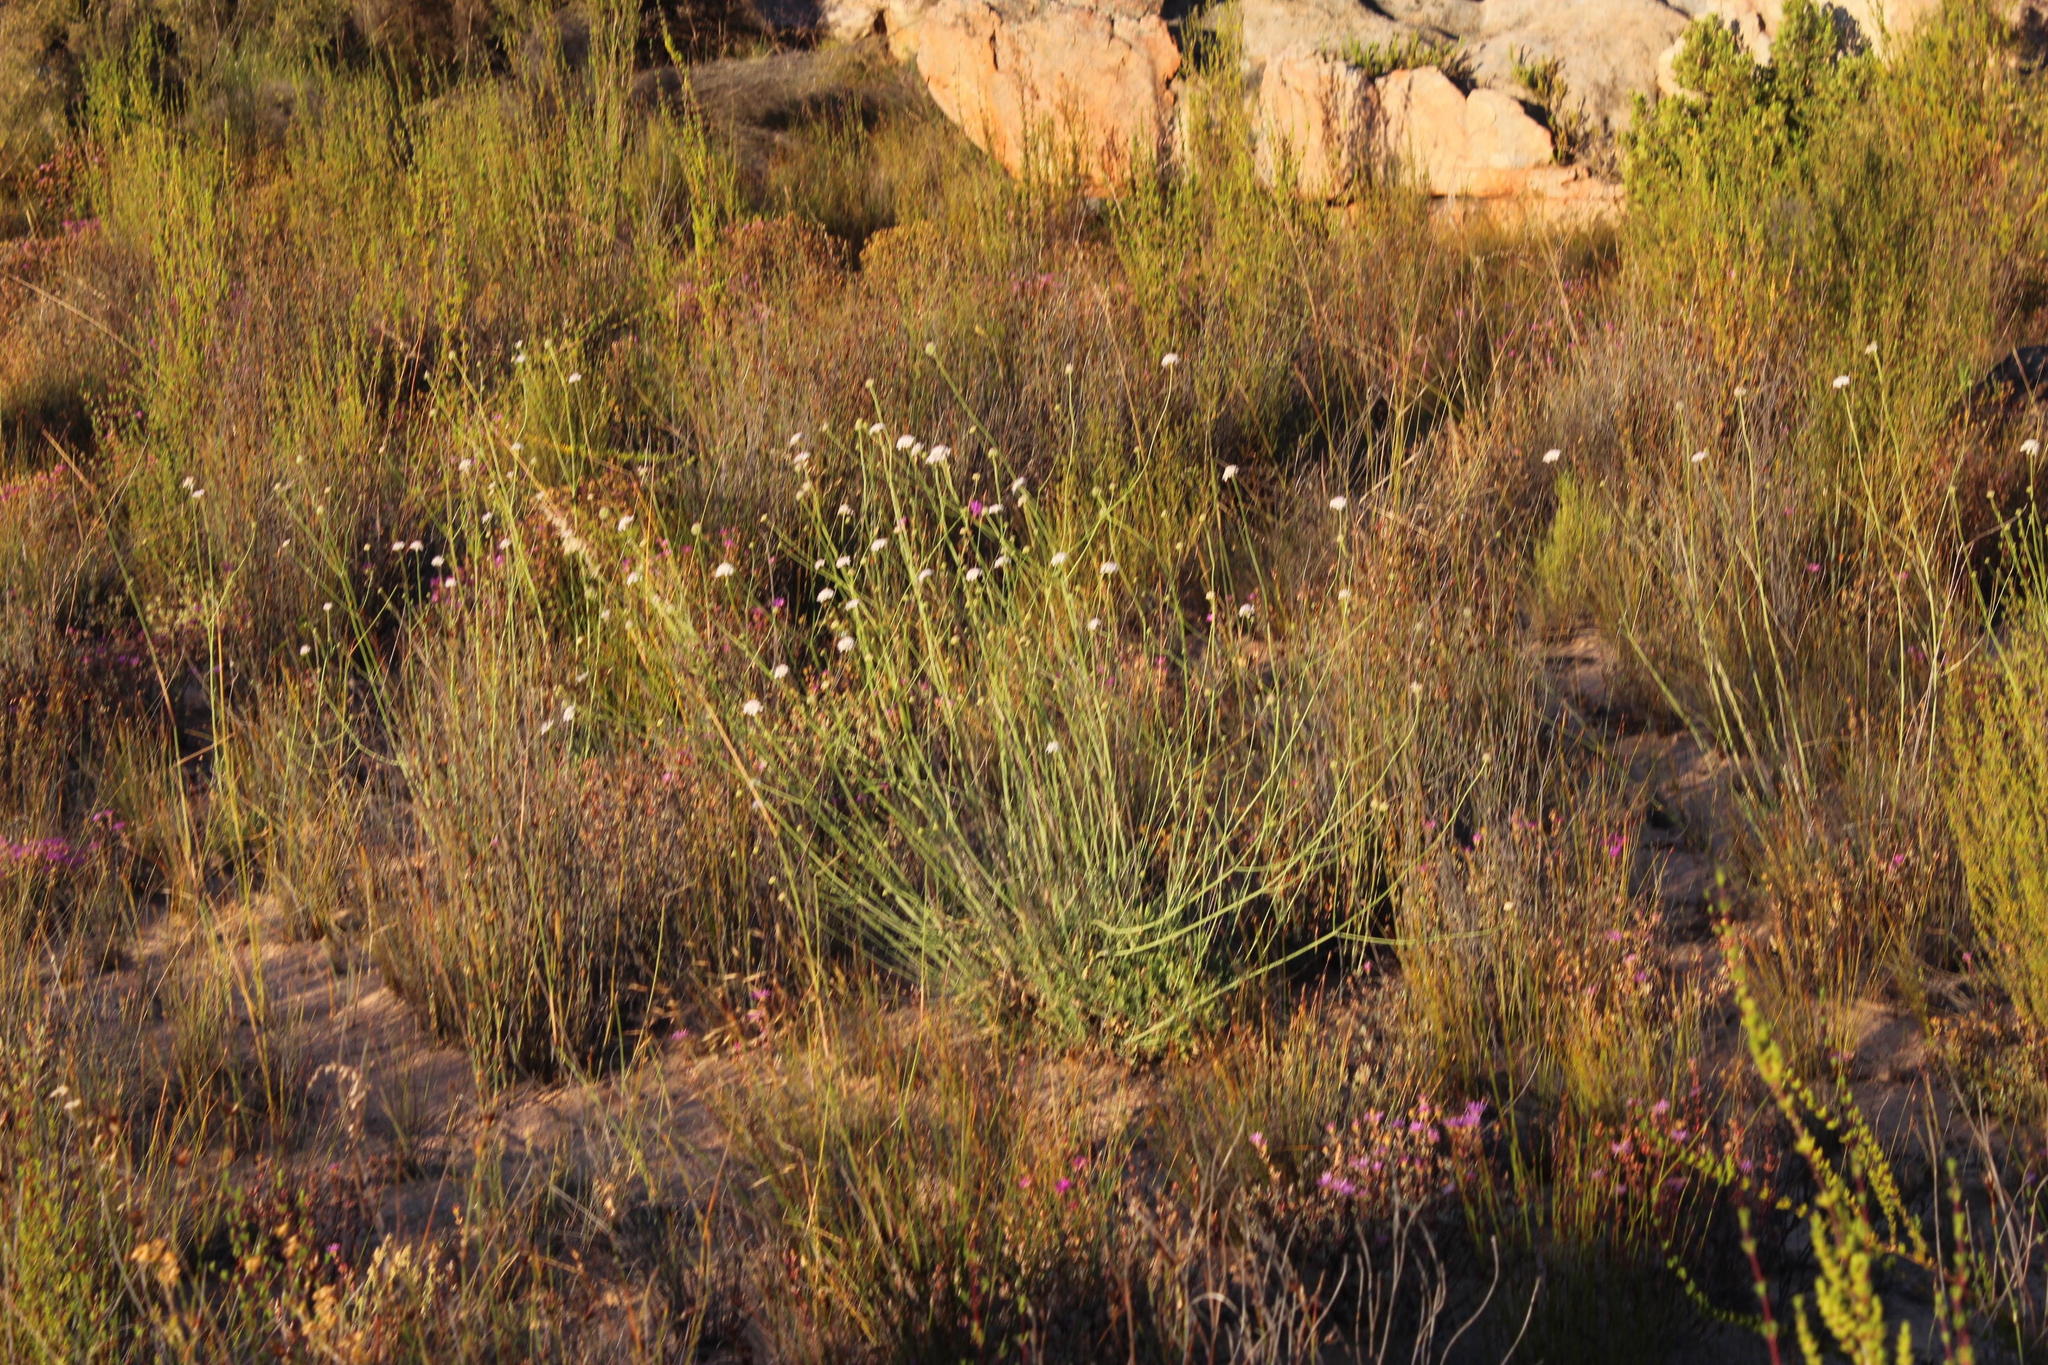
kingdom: Plantae
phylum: Tracheophyta
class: Magnoliopsida
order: Dipsacales
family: Caprifoliaceae
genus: Scabiosa
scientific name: Scabiosa columbaria
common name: Small scabious
